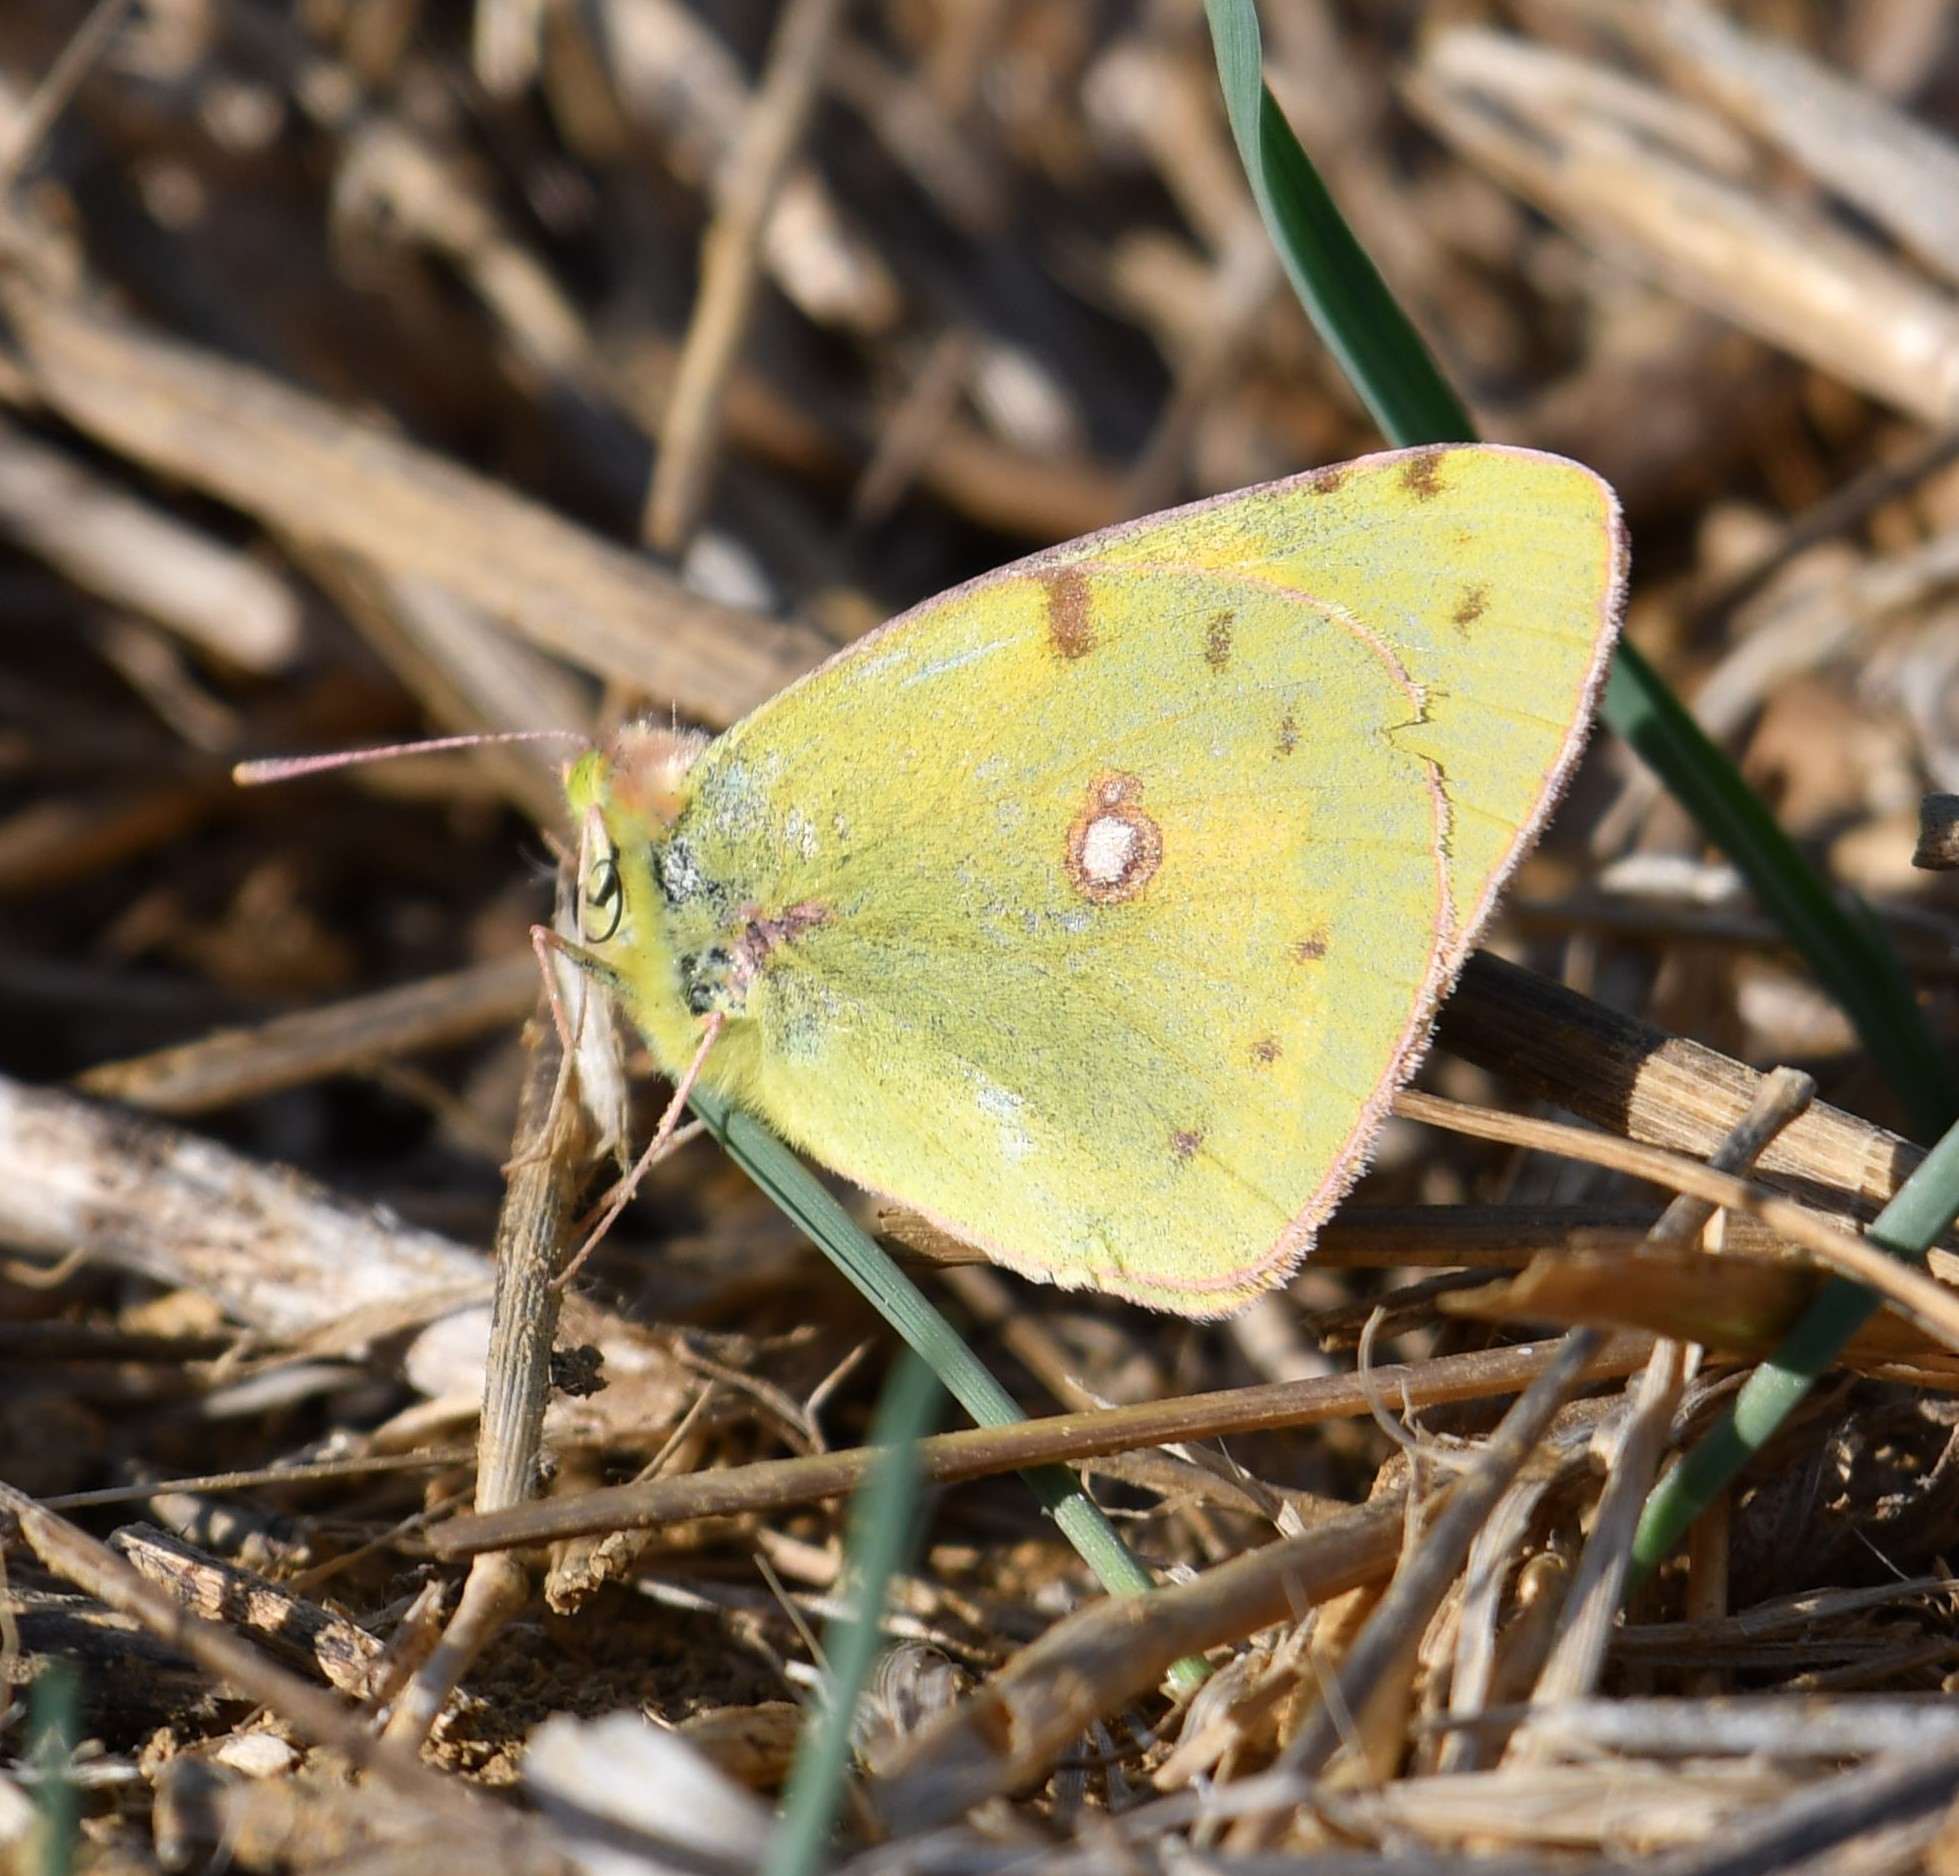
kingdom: Animalia
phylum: Arthropoda
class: Insecta
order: Lepidoptera
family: Pieridae
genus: Colias
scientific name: Colias croceus
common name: Clouded yellow
